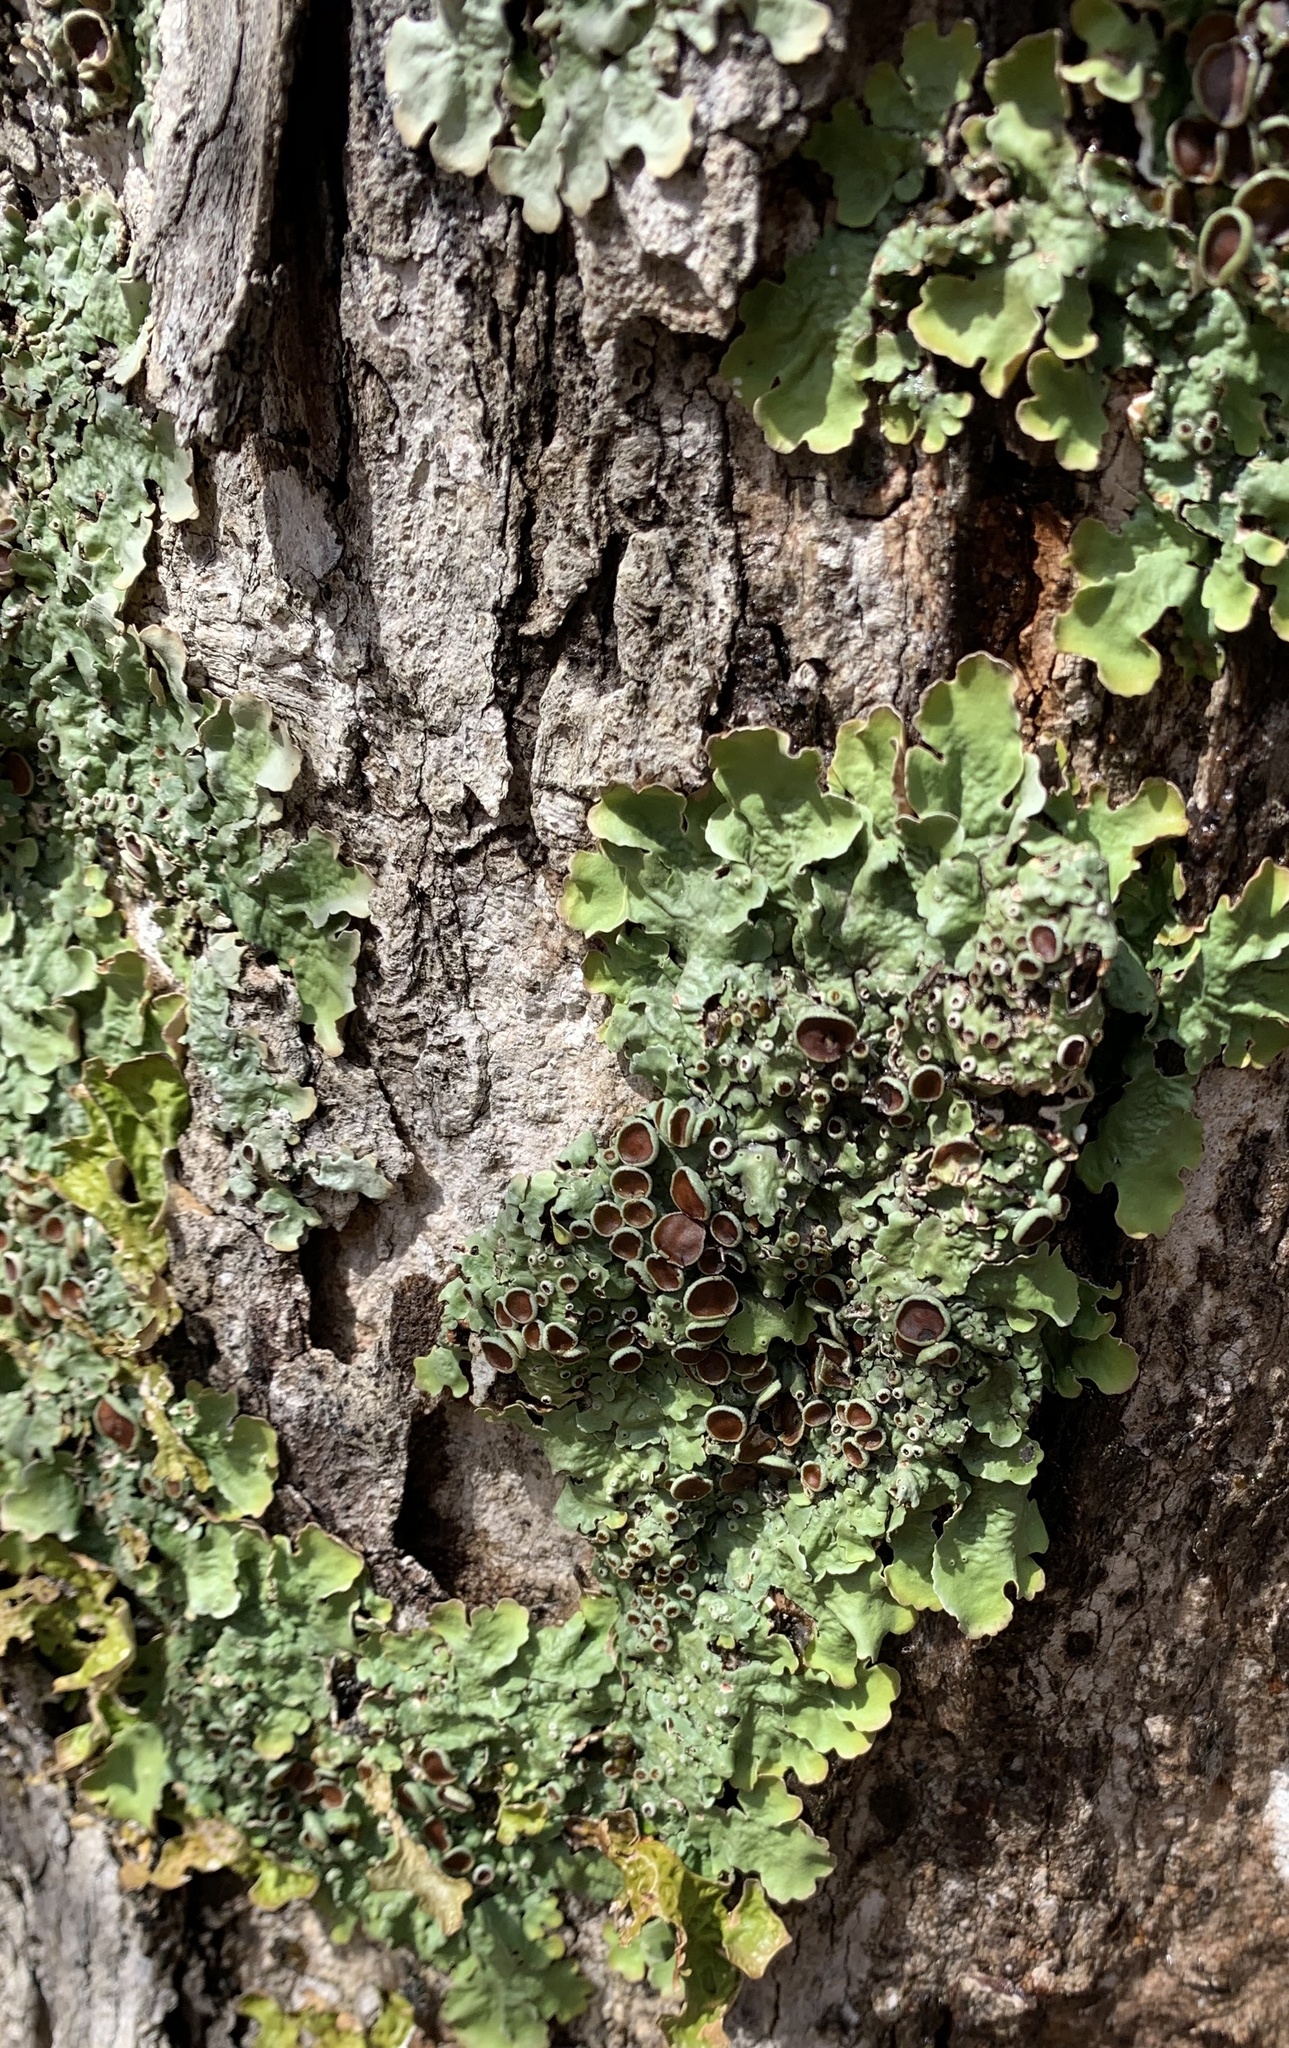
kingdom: Fungi
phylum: Ascomycota
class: Lecanoromycetes
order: Peltigerales
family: Lobariaceae
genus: Ricasolia
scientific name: Ricasolia quercizans
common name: Smooth lungwort
